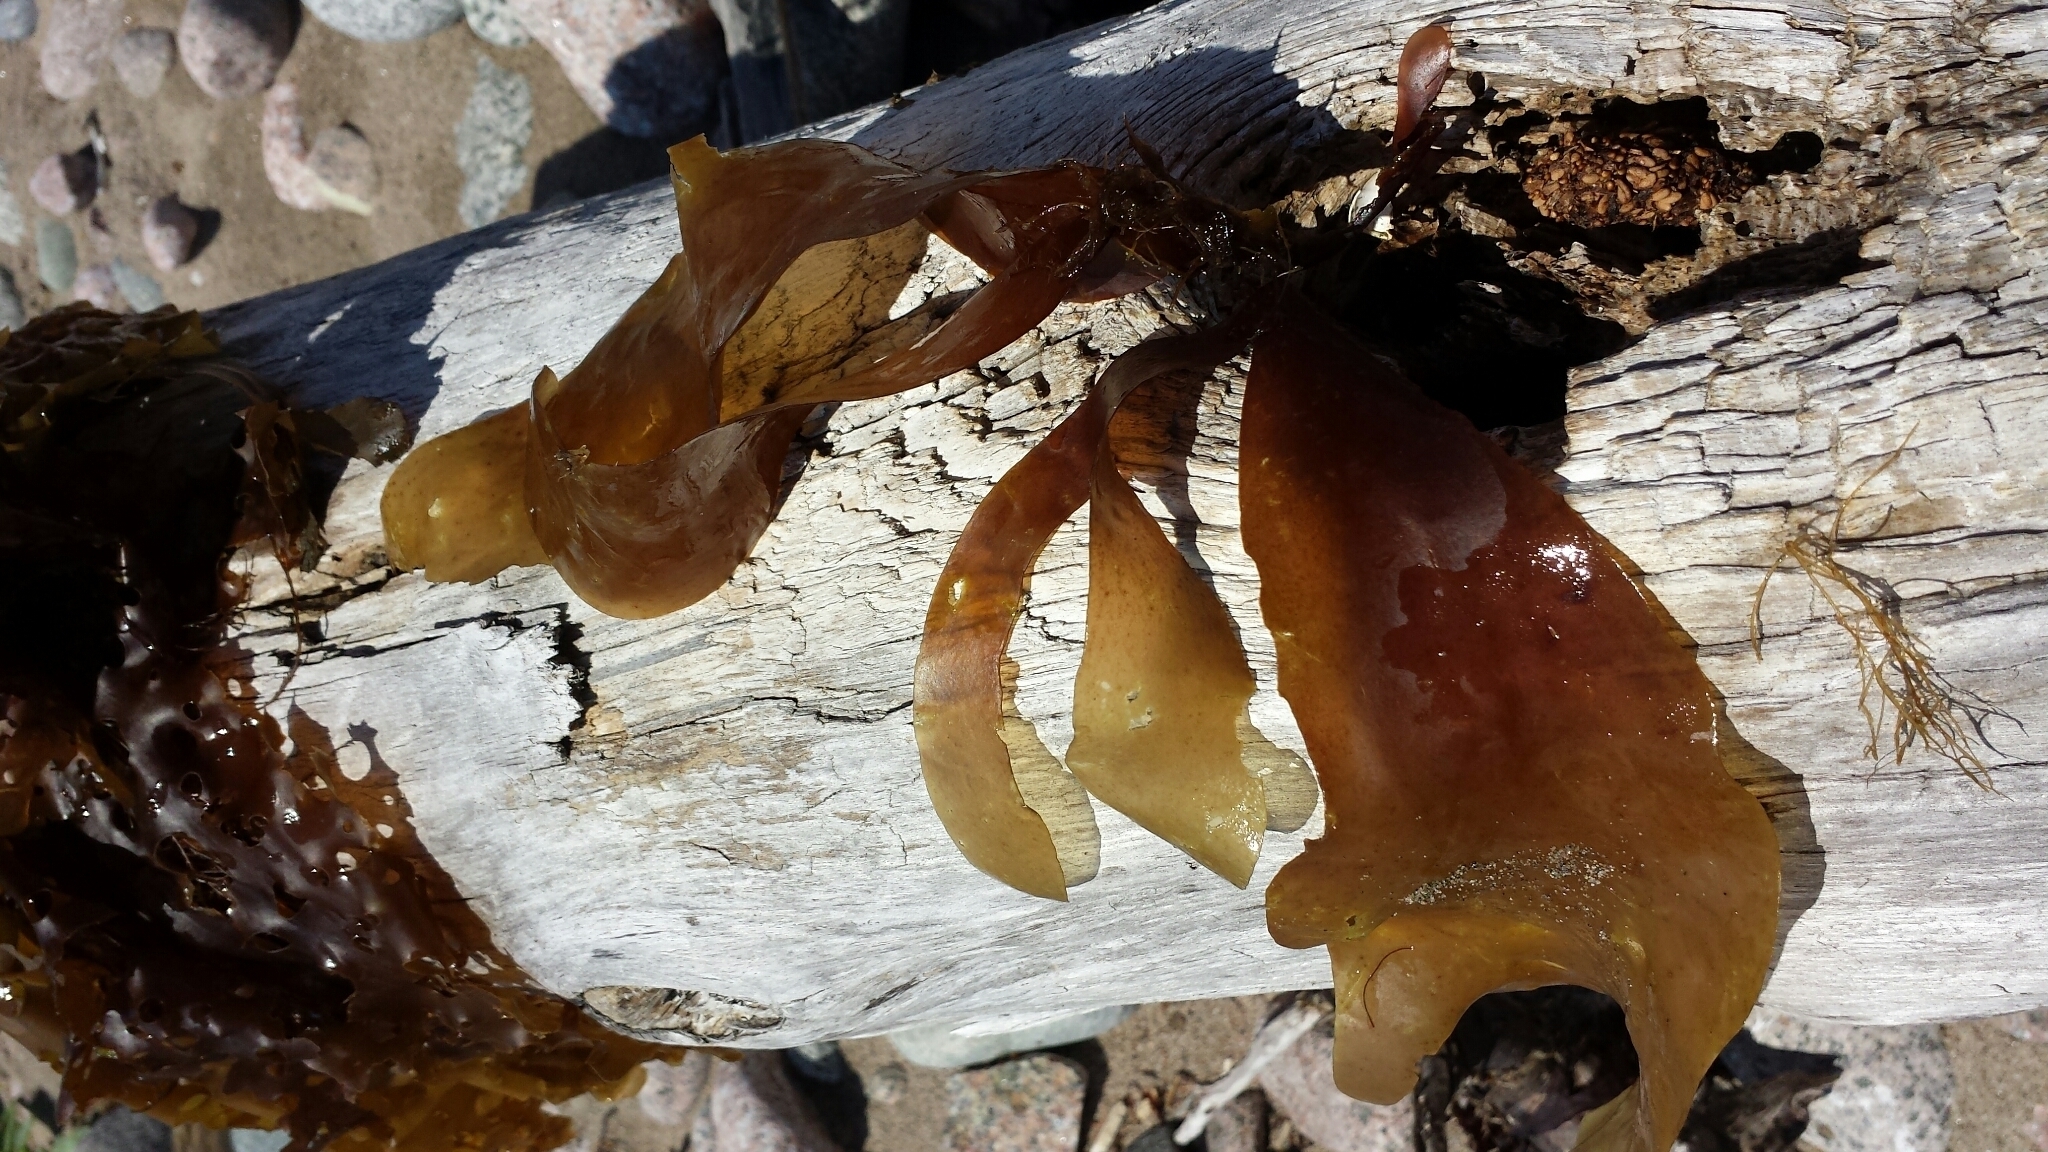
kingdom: Chromista
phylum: Ochrophyta
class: Phaeophyceae
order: Laminariales
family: Laminariaceae
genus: Laminaria
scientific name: Laminaria digitata
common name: Oarweed
